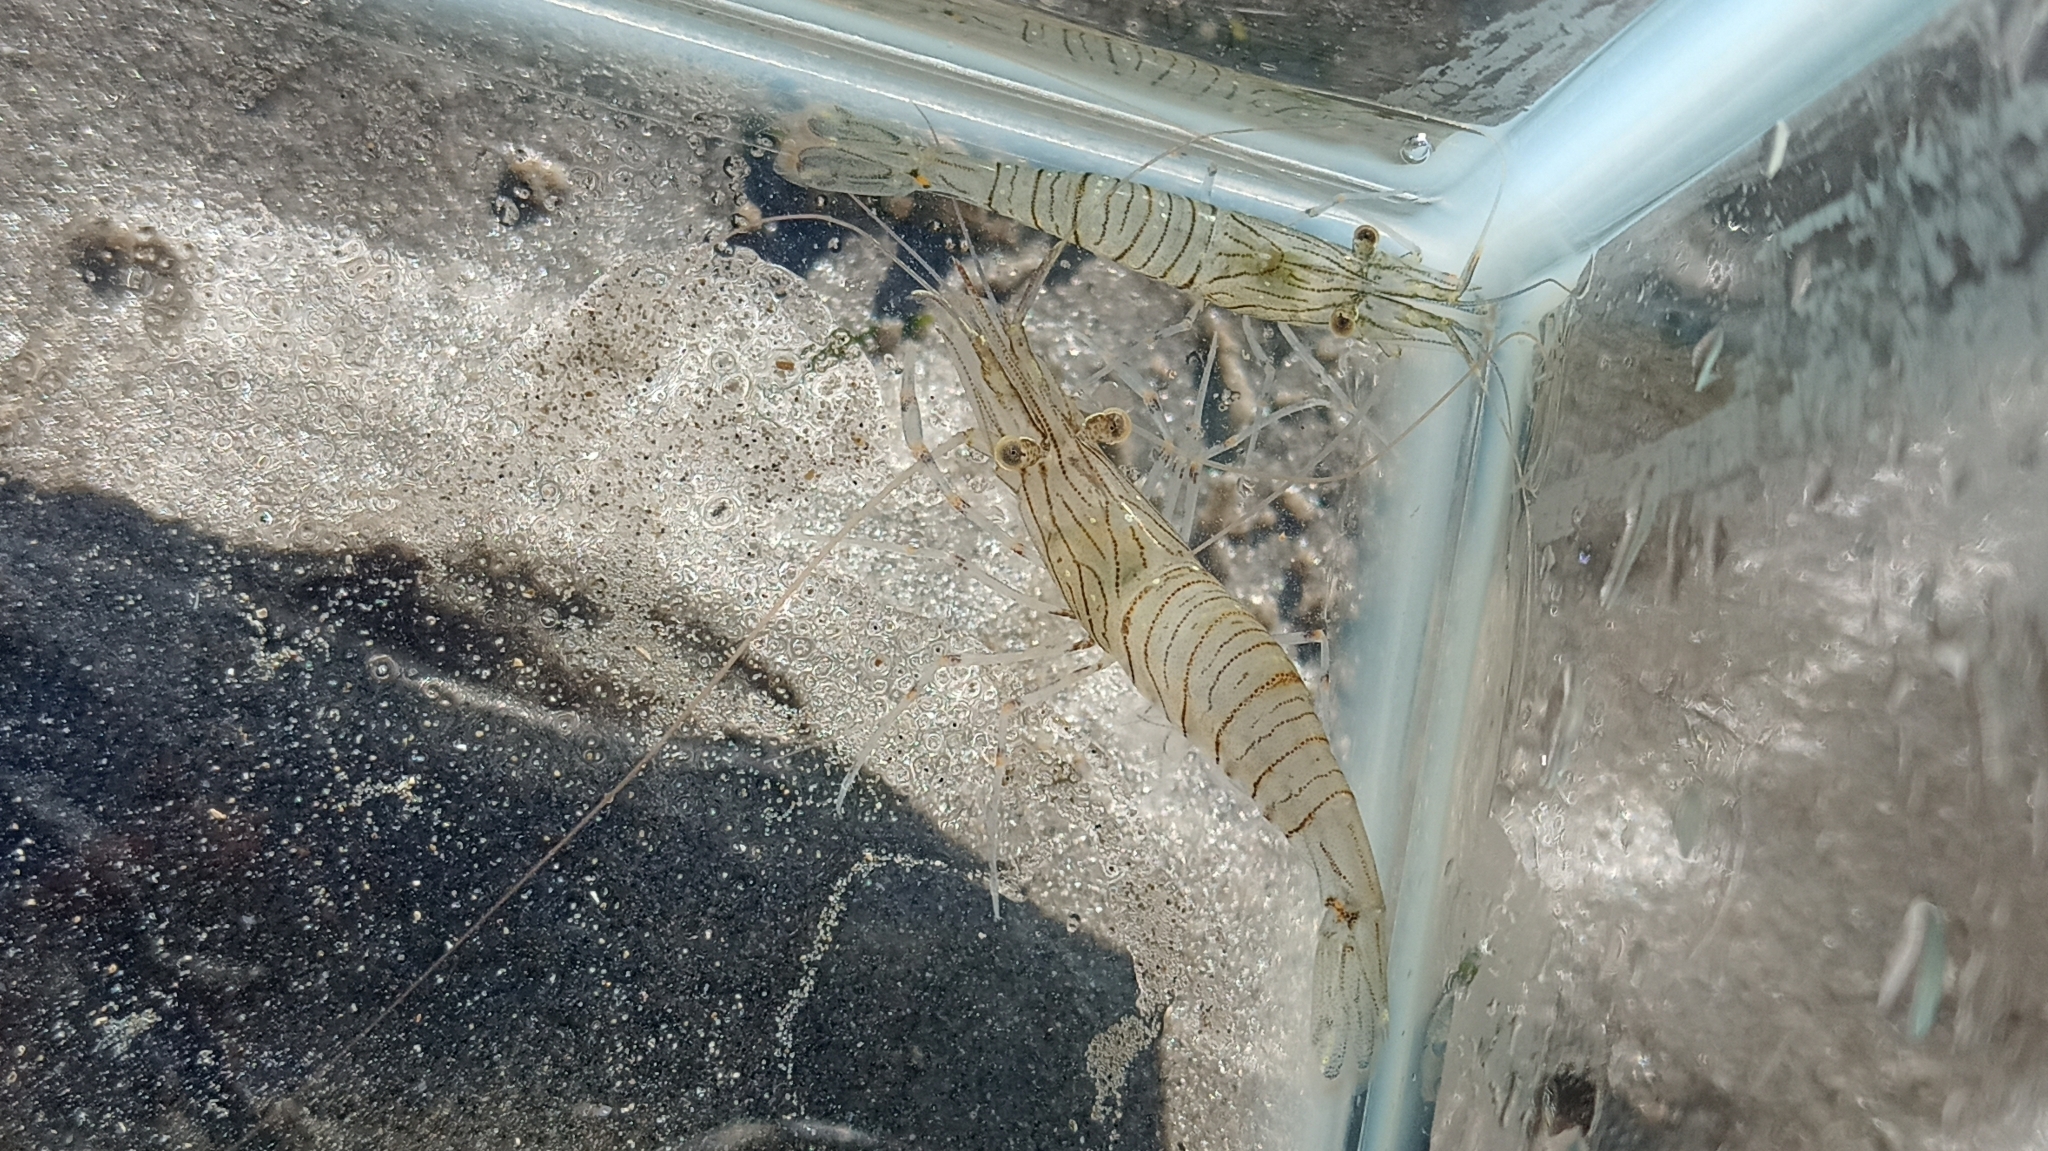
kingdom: Animalia
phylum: Arthropoda
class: Malacostraca
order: Decapoda
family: Palaemonidae
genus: Palaemon
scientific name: Palaemon serratus
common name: Common prawn
